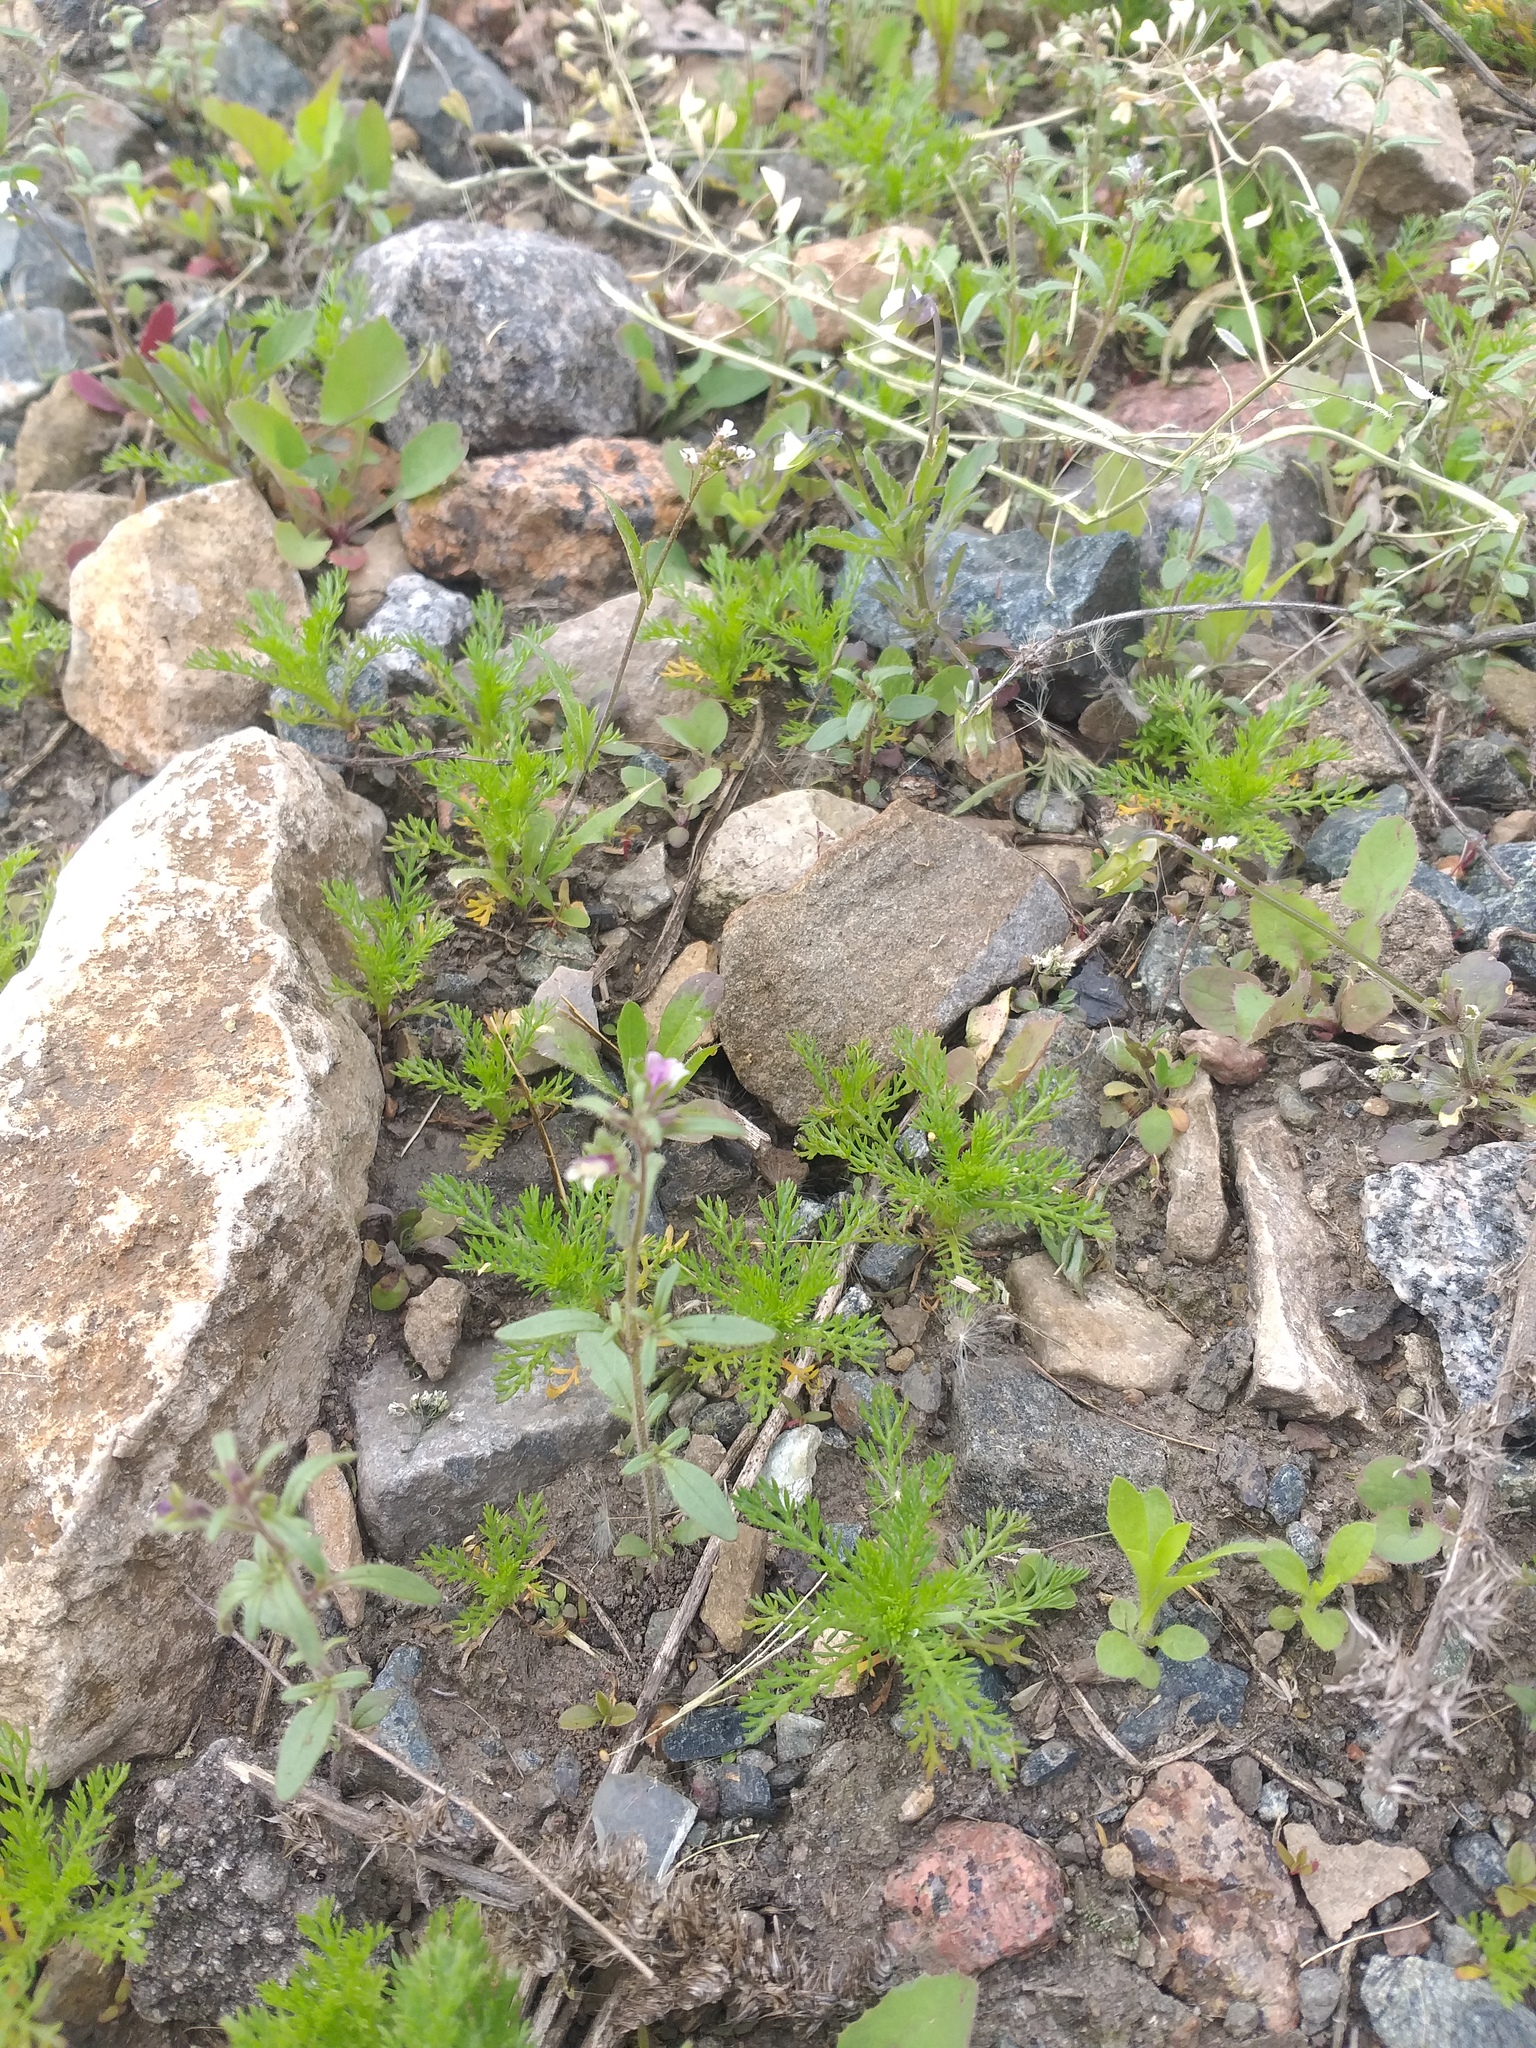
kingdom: Plantae
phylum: Tracheophyta
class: Magnoliopsida
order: Lamiales
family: Plantaginaceae
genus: Chaenorhinum
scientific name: Chaenorhinum minus
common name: Dwarf snapdragon
